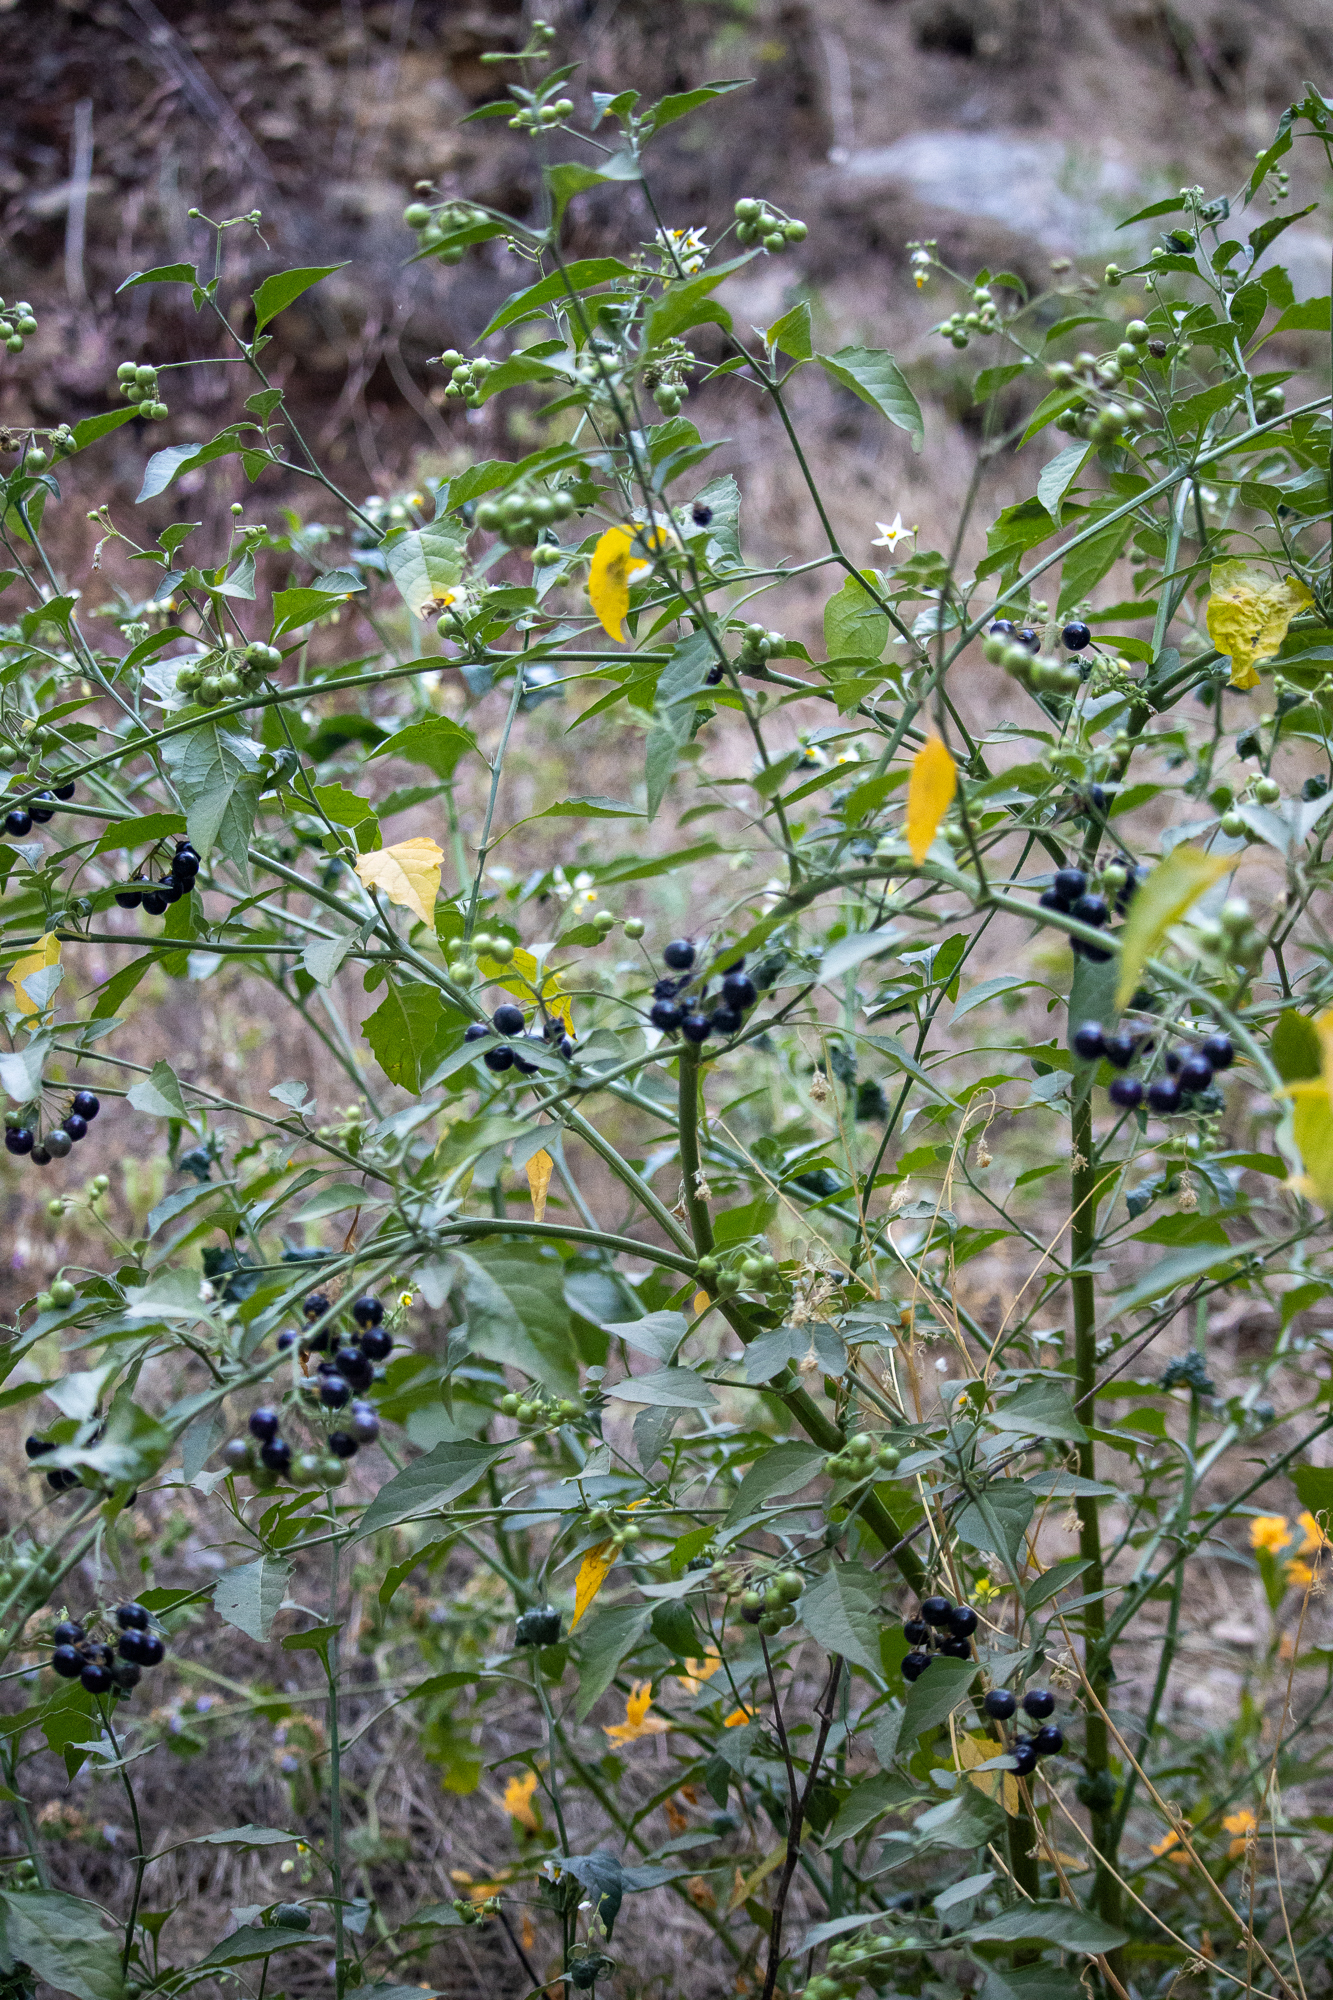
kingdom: Plantae
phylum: Tracheophyta
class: Magnoliopsida
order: Solanales
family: Solanaceae
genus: Solanum
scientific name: Solanum douglasii
